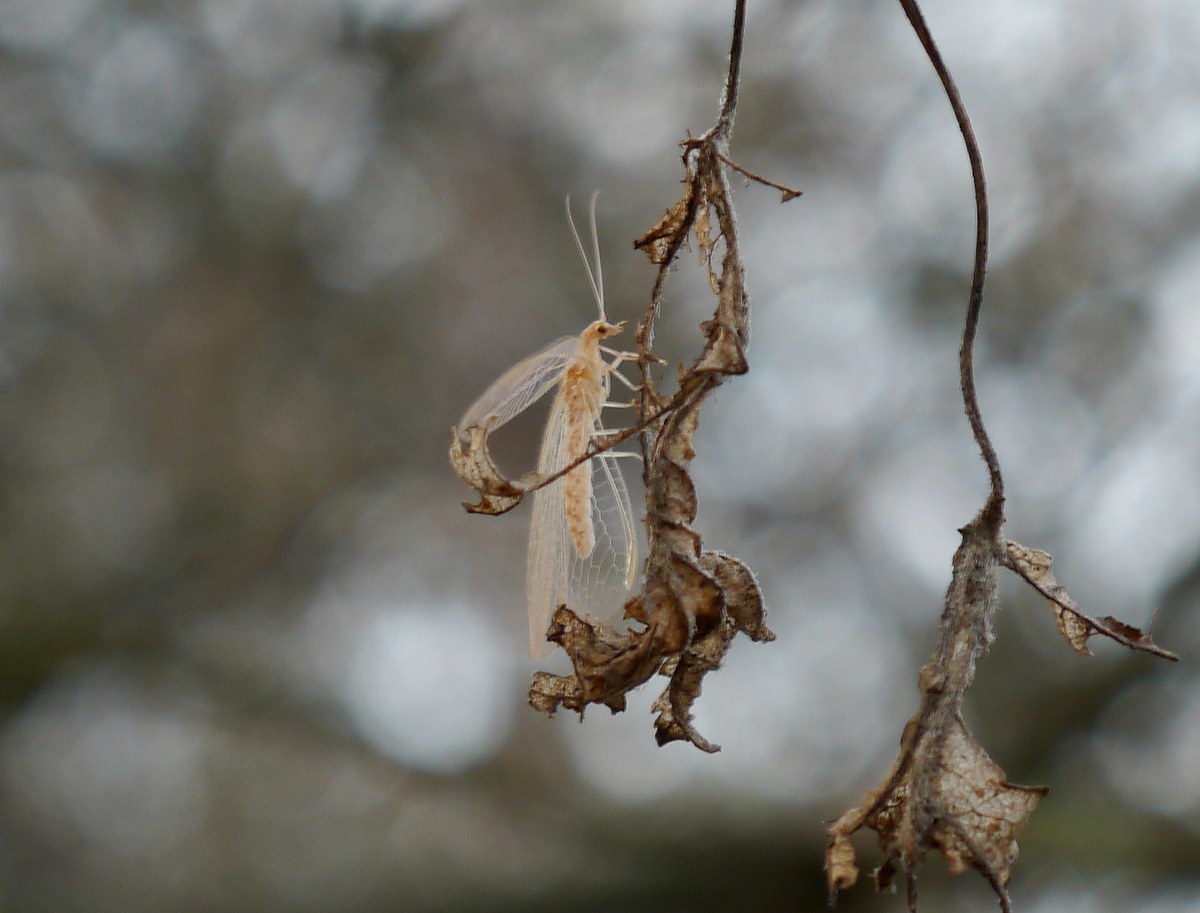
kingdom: Animalia
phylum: Arthropoda
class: Insecta
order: Neuroptera
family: Chrysopidae
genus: Chrysoperla
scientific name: Chrysoperla
